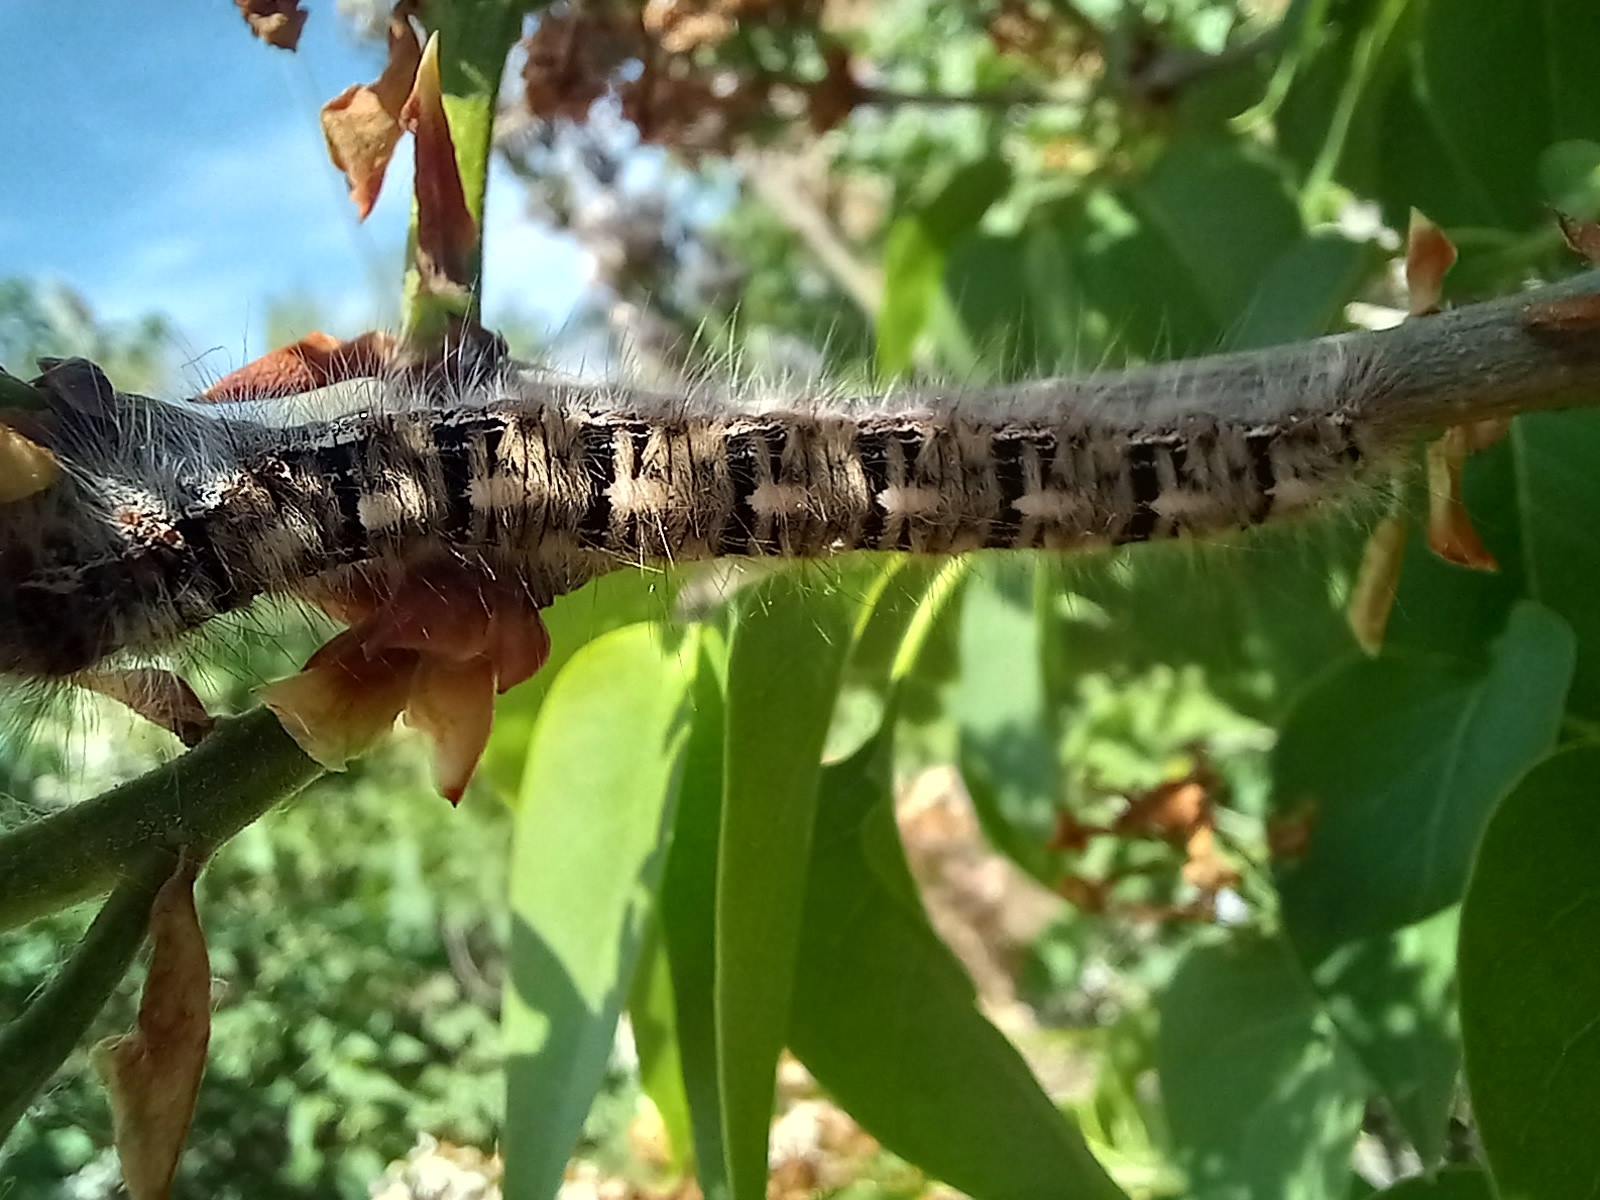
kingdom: Animalia
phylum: Arthropoda
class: Insecta
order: Lepidoptera
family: Lasiocampidae
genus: Lasiocampa
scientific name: Lasiocampa quercus
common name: Oak eggar
